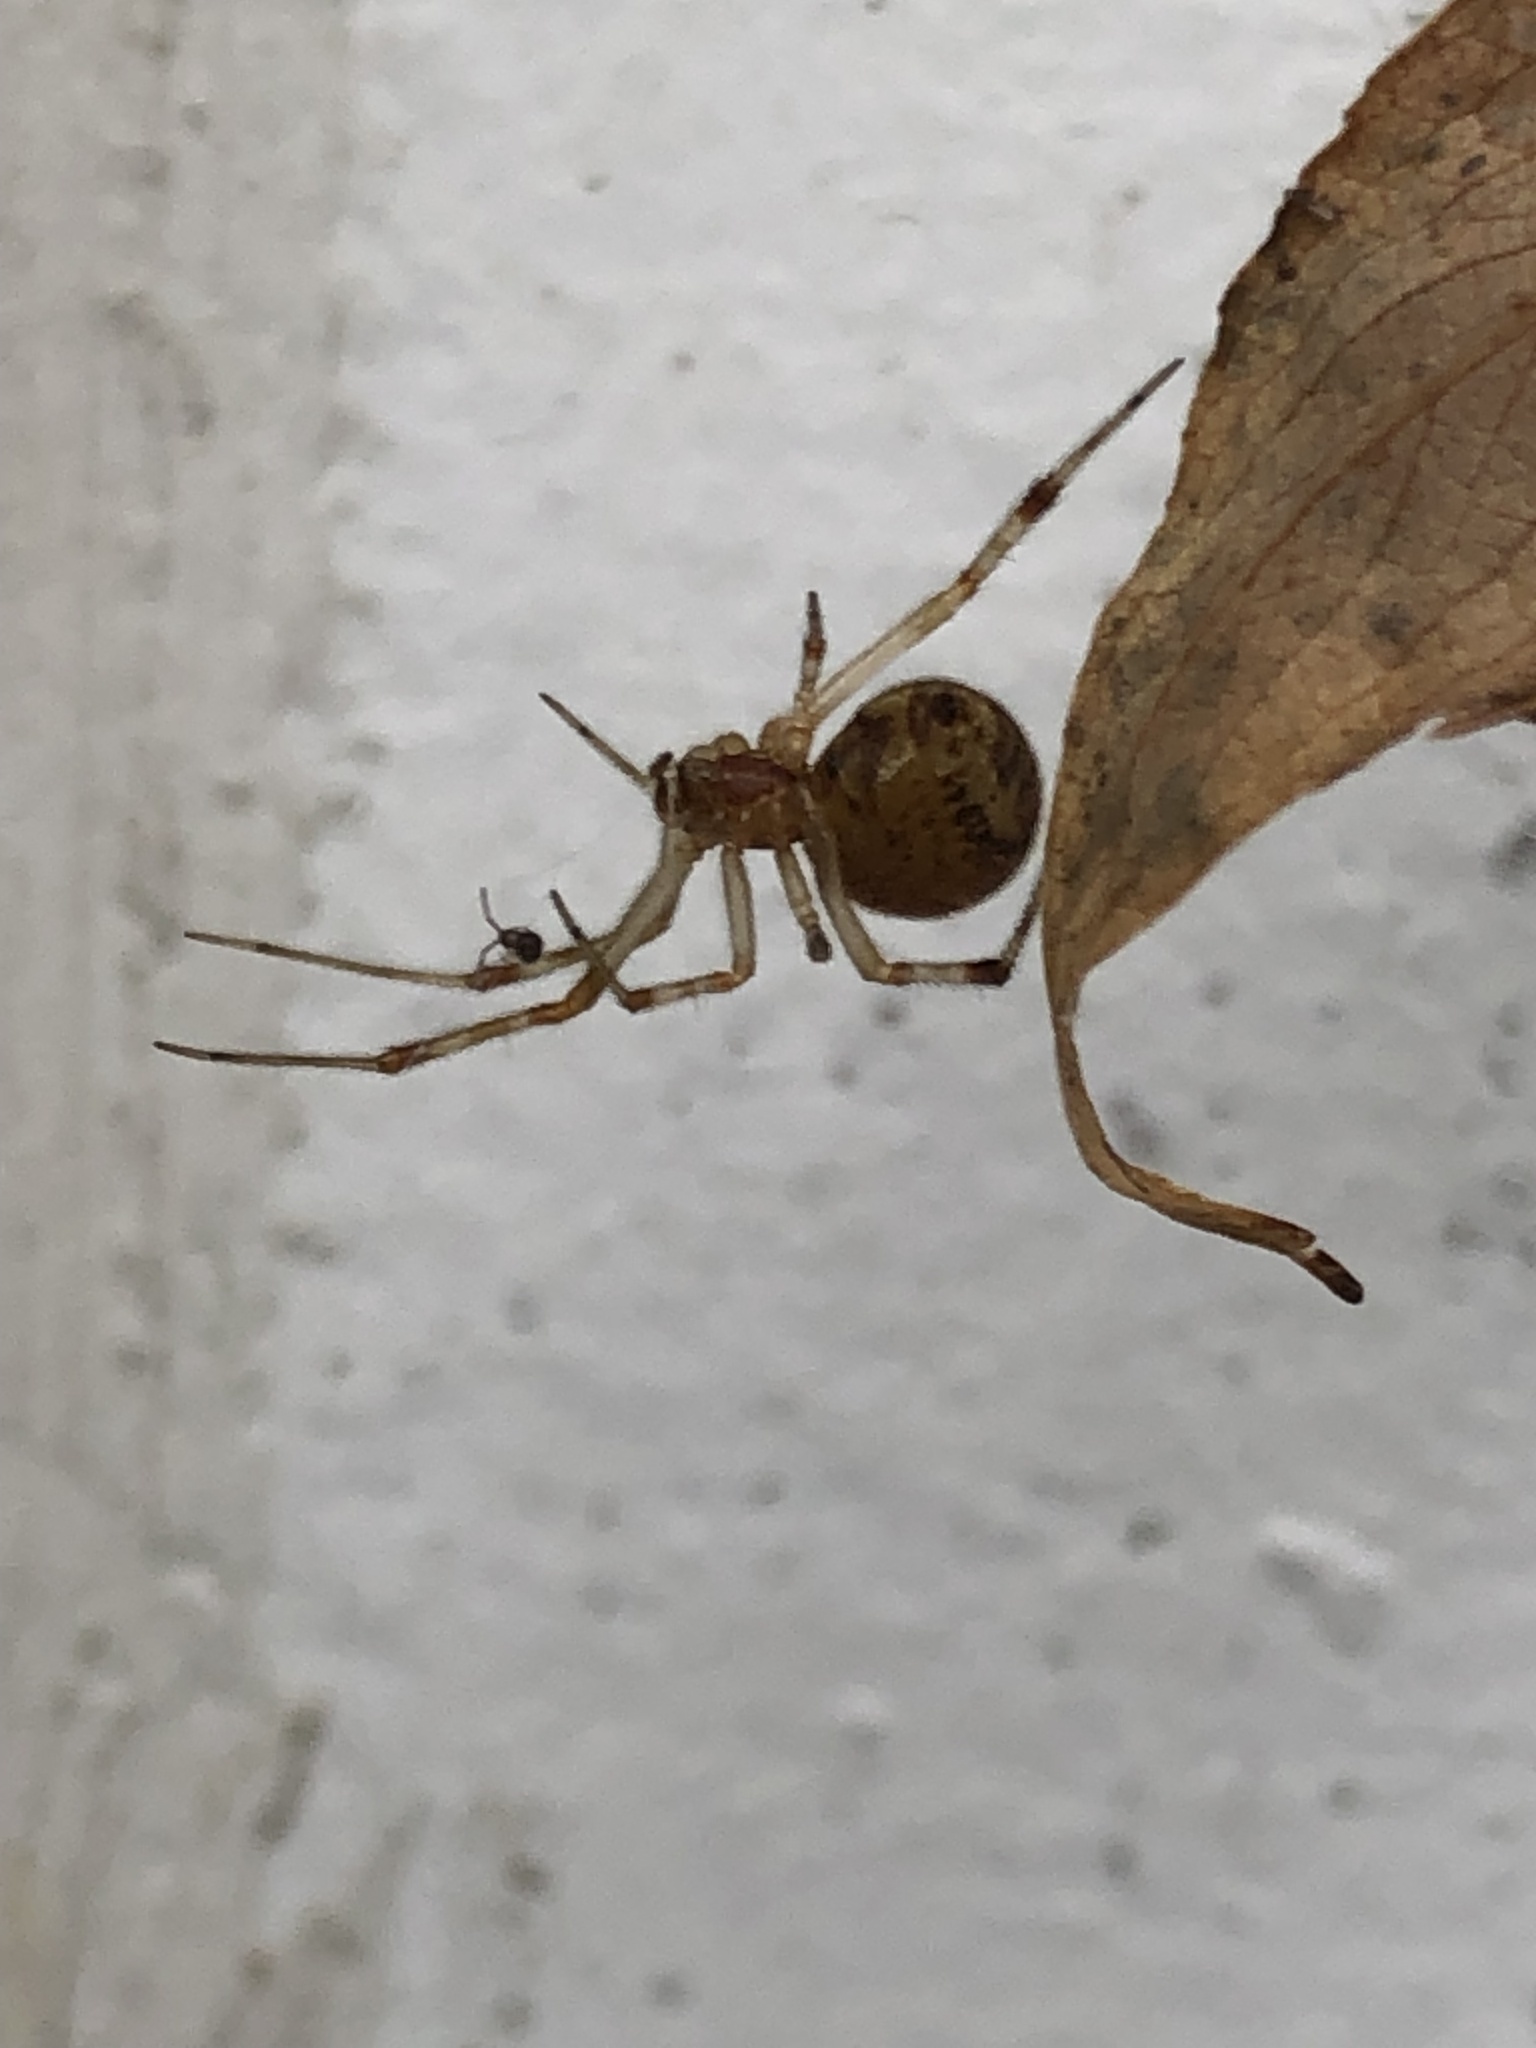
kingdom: Animalia
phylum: Arthropoda
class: Arachnida
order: Araneae
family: Theridiidae
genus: Parasteatoda
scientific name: Parasteatoda tepidariorum
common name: Common house spider
